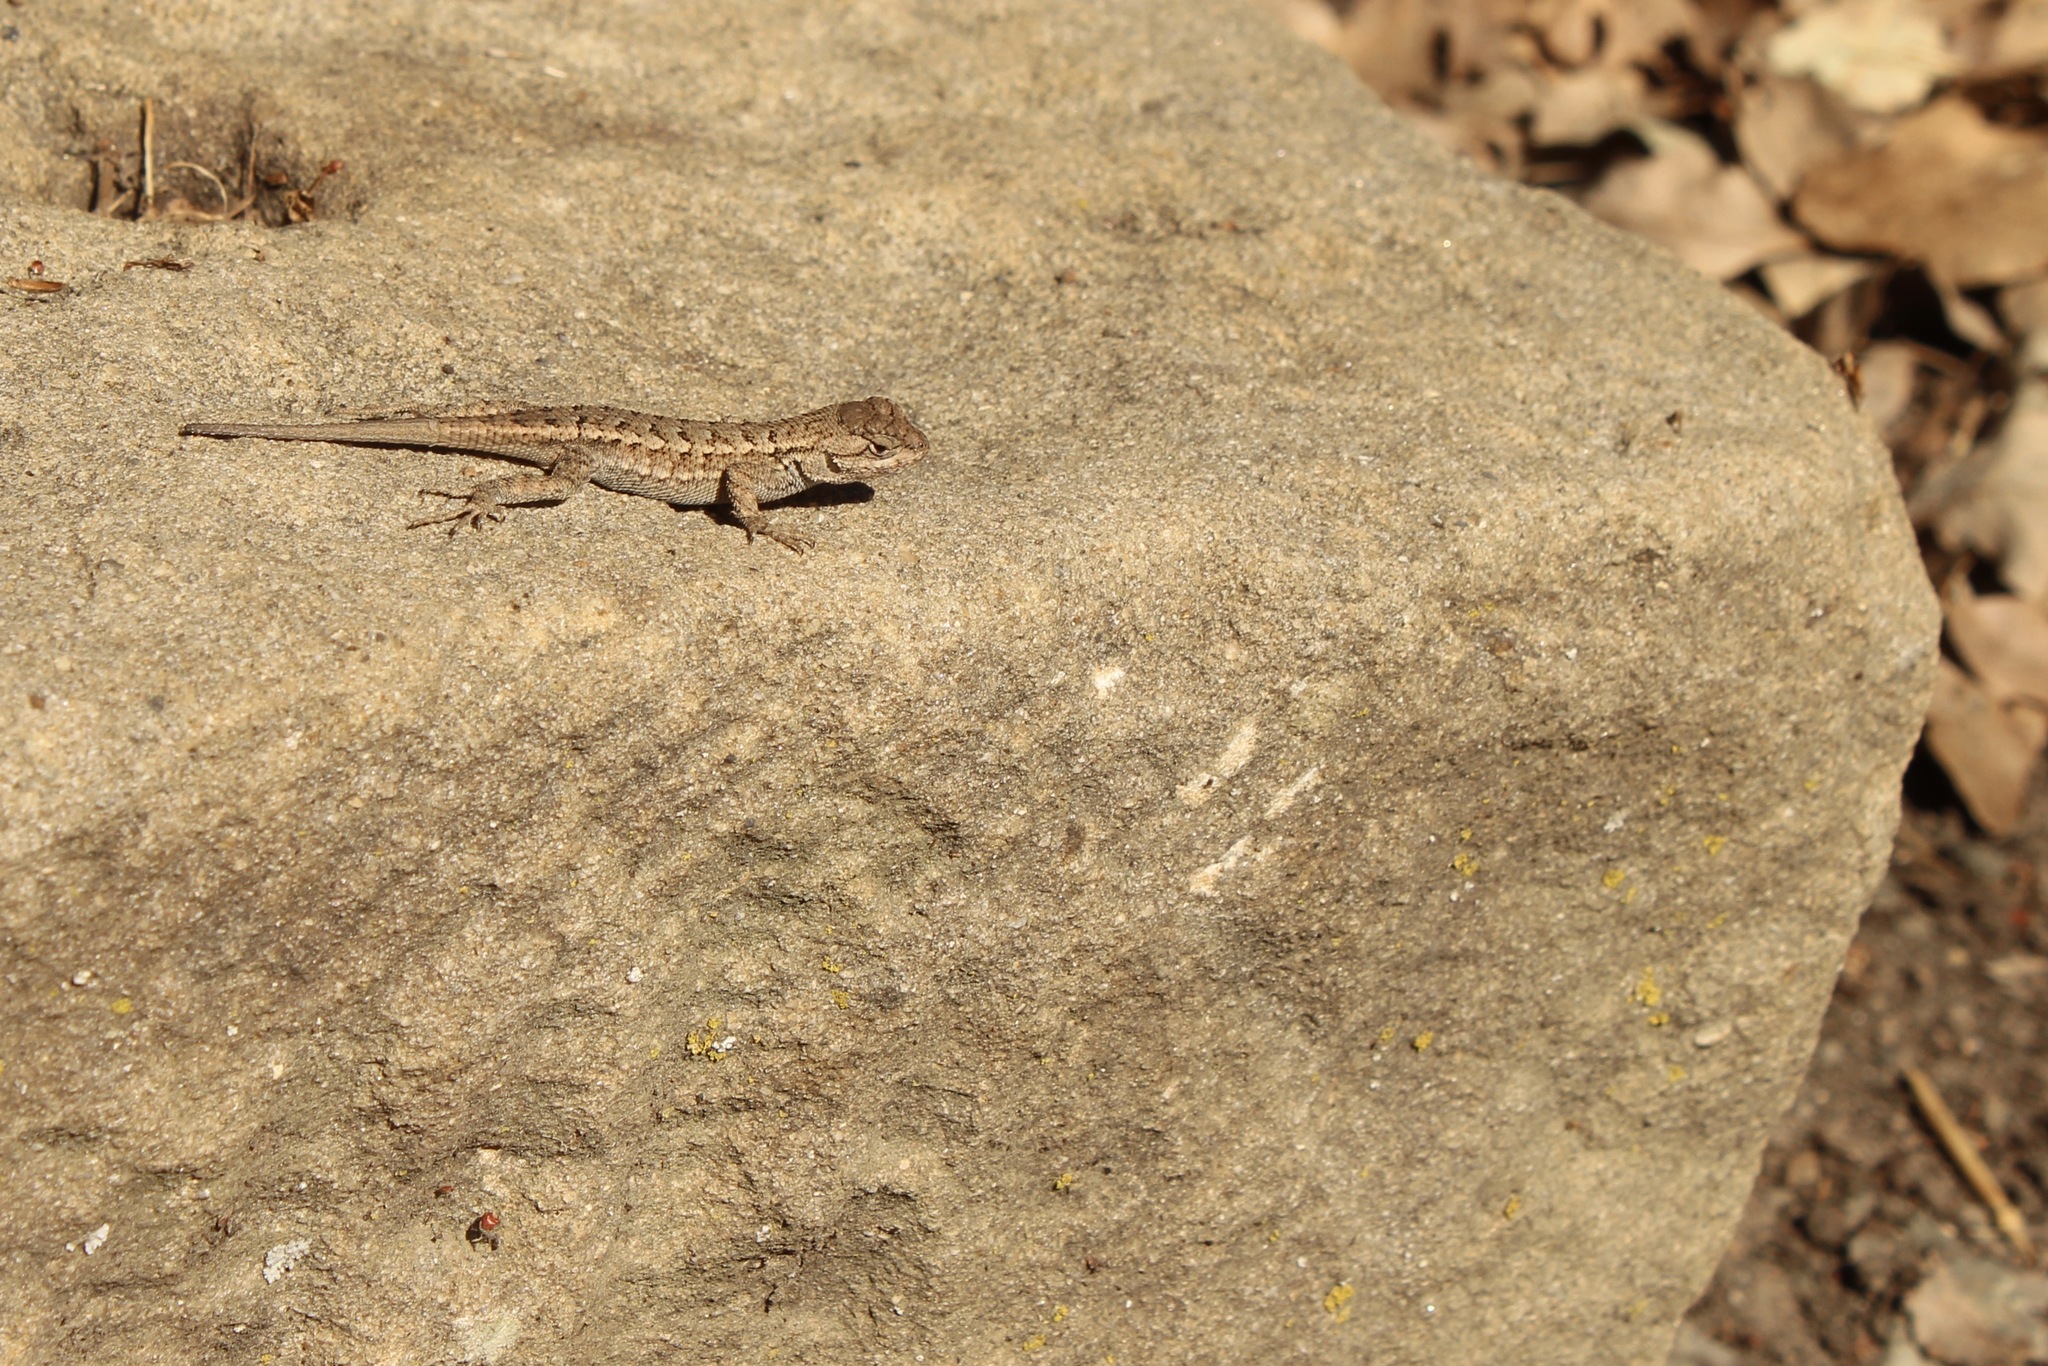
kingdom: Animalia
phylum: Chordata
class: Squamata
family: Phrynosomatidae
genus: Sceloporus
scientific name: Sceloporus occidentalis
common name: Western fence lizard
